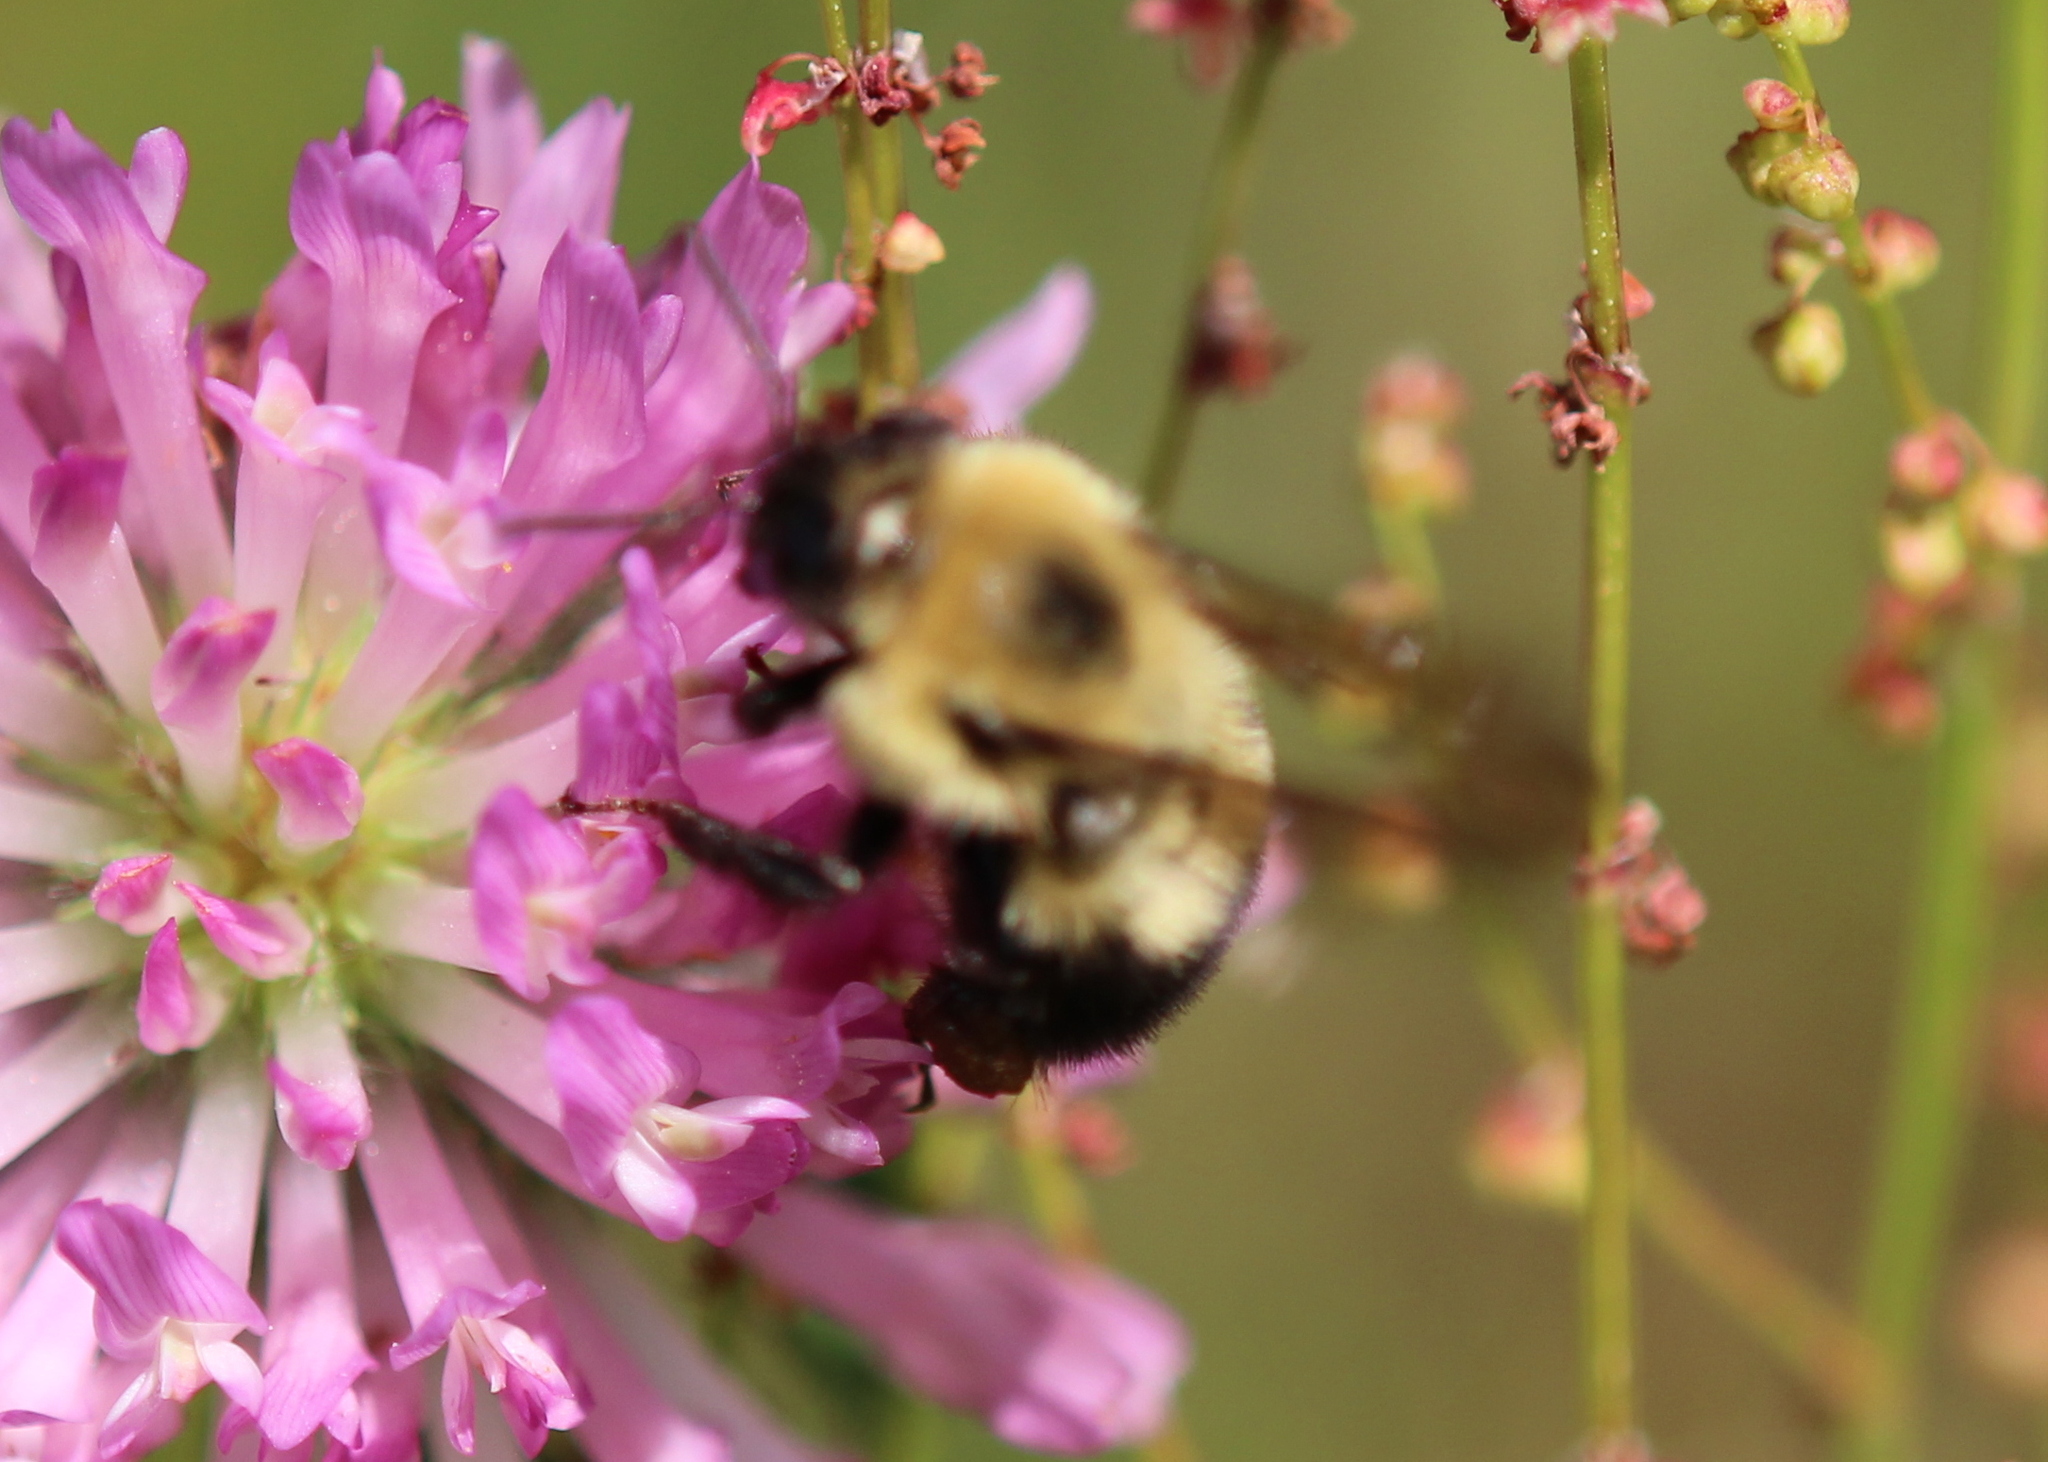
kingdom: Animalia
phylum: Arthropoda
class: Insecta
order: Hymenoptera
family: Apidae
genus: Bombus
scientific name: Bombus bimaculatus
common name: Two-spotted bumble bee
